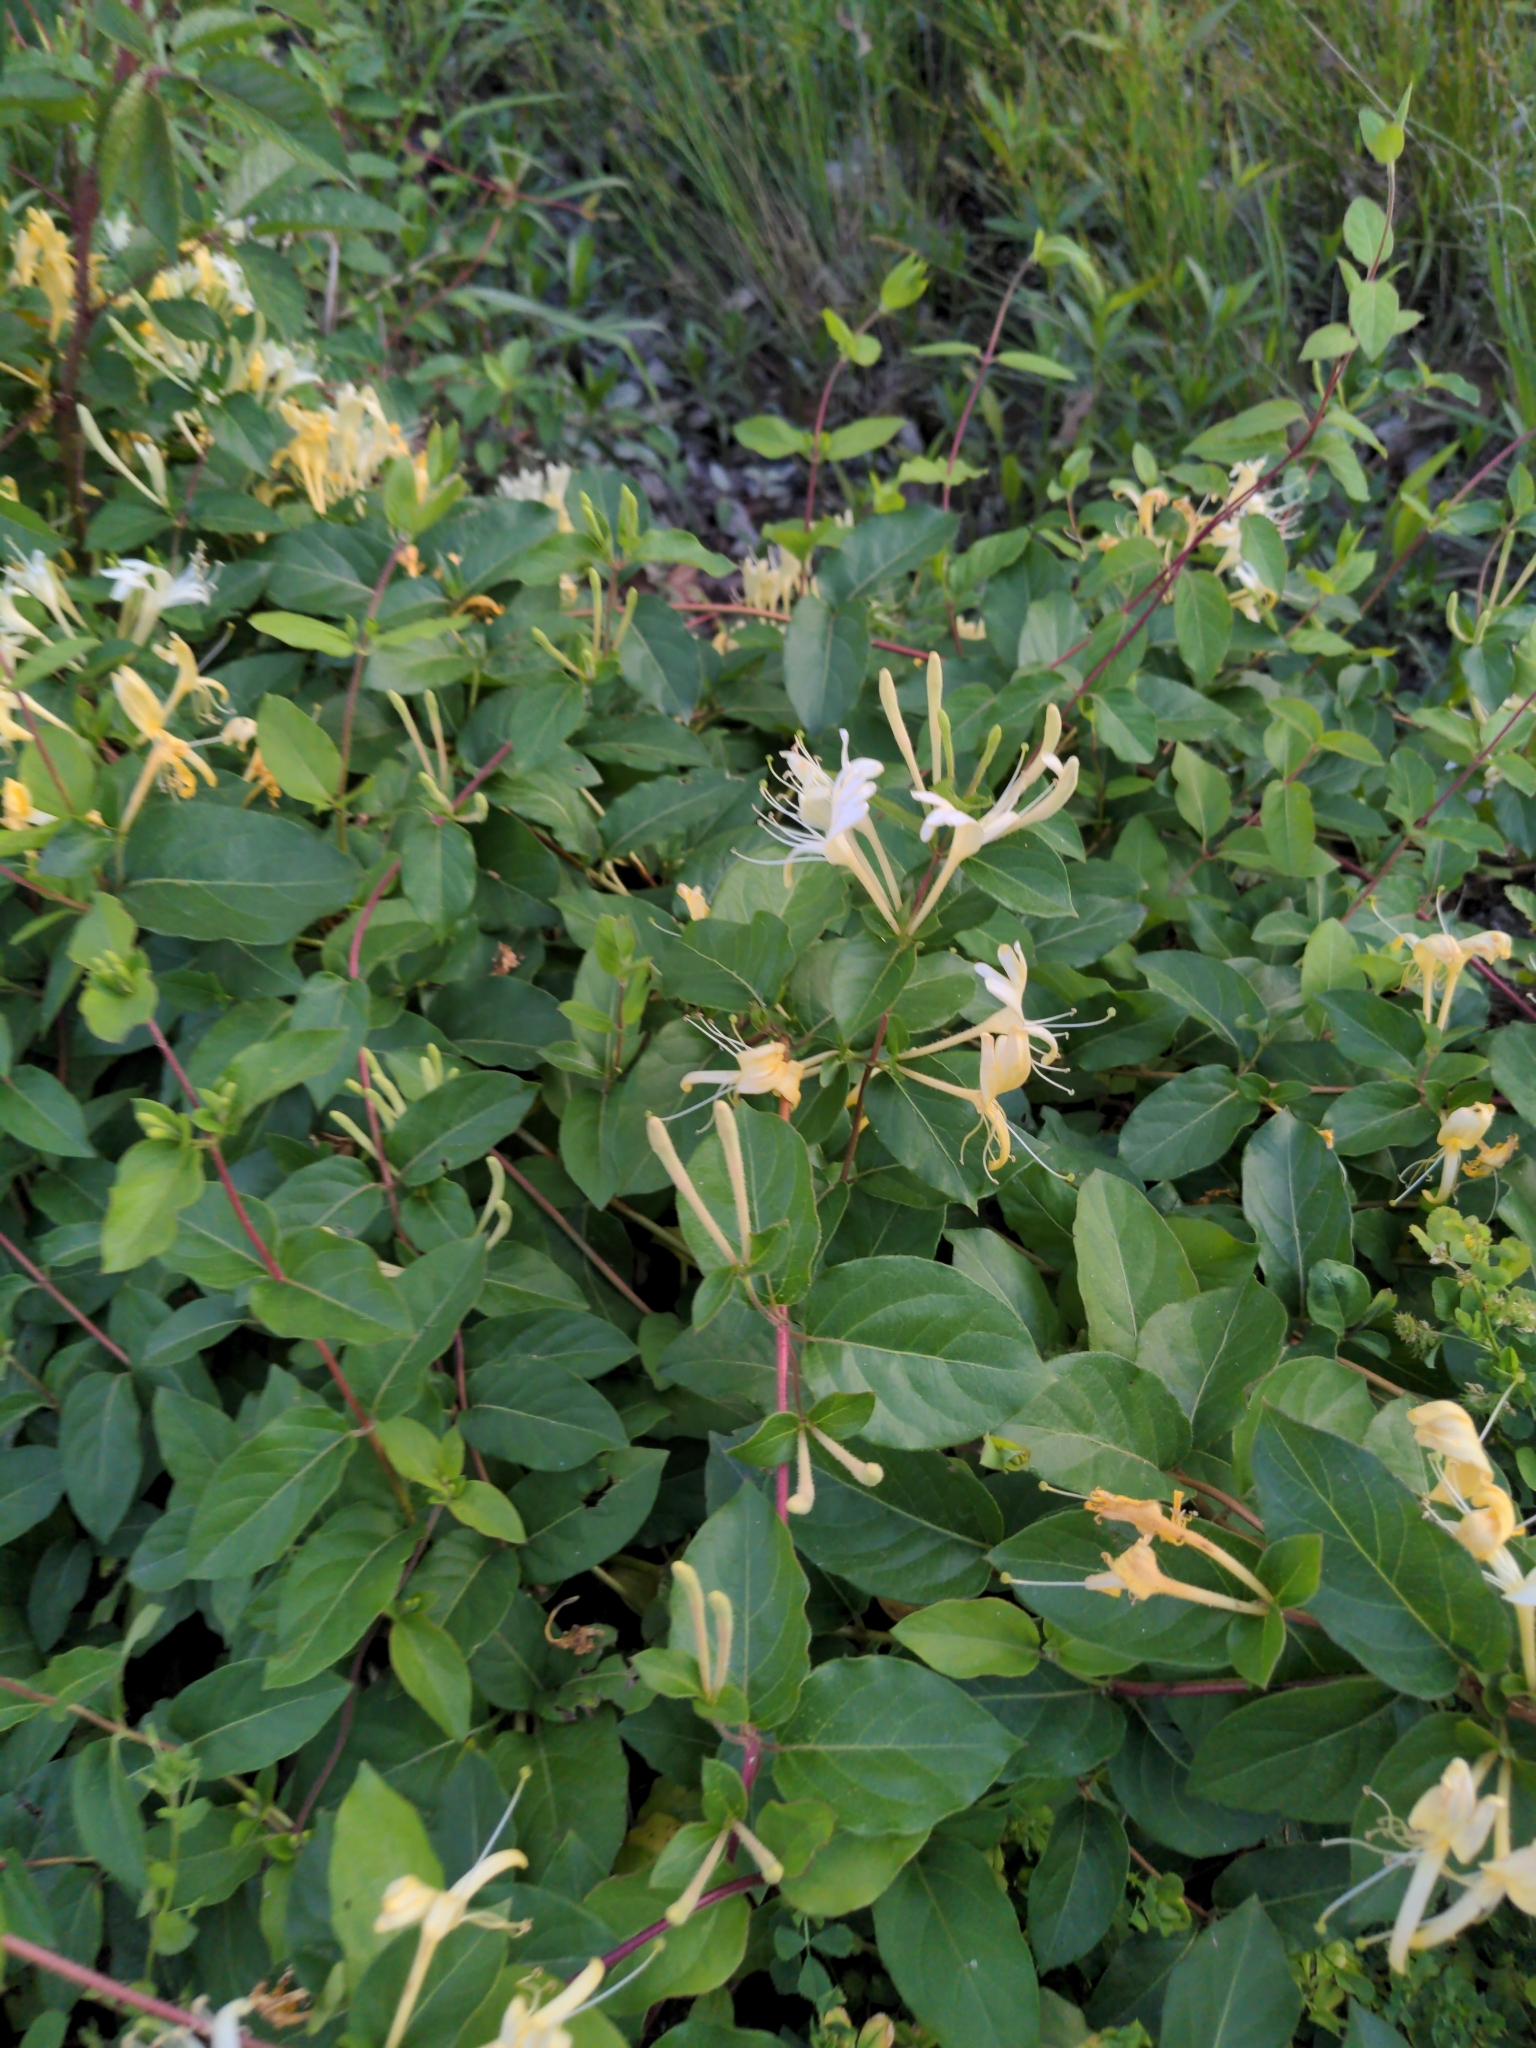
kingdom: Plantae
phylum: Tracheophyta
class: Magnoliopsida
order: Dipsacales
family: Caprifoliaceae
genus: Lonicera
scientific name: Lonicera japonica
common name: Japanese honeysuckle
